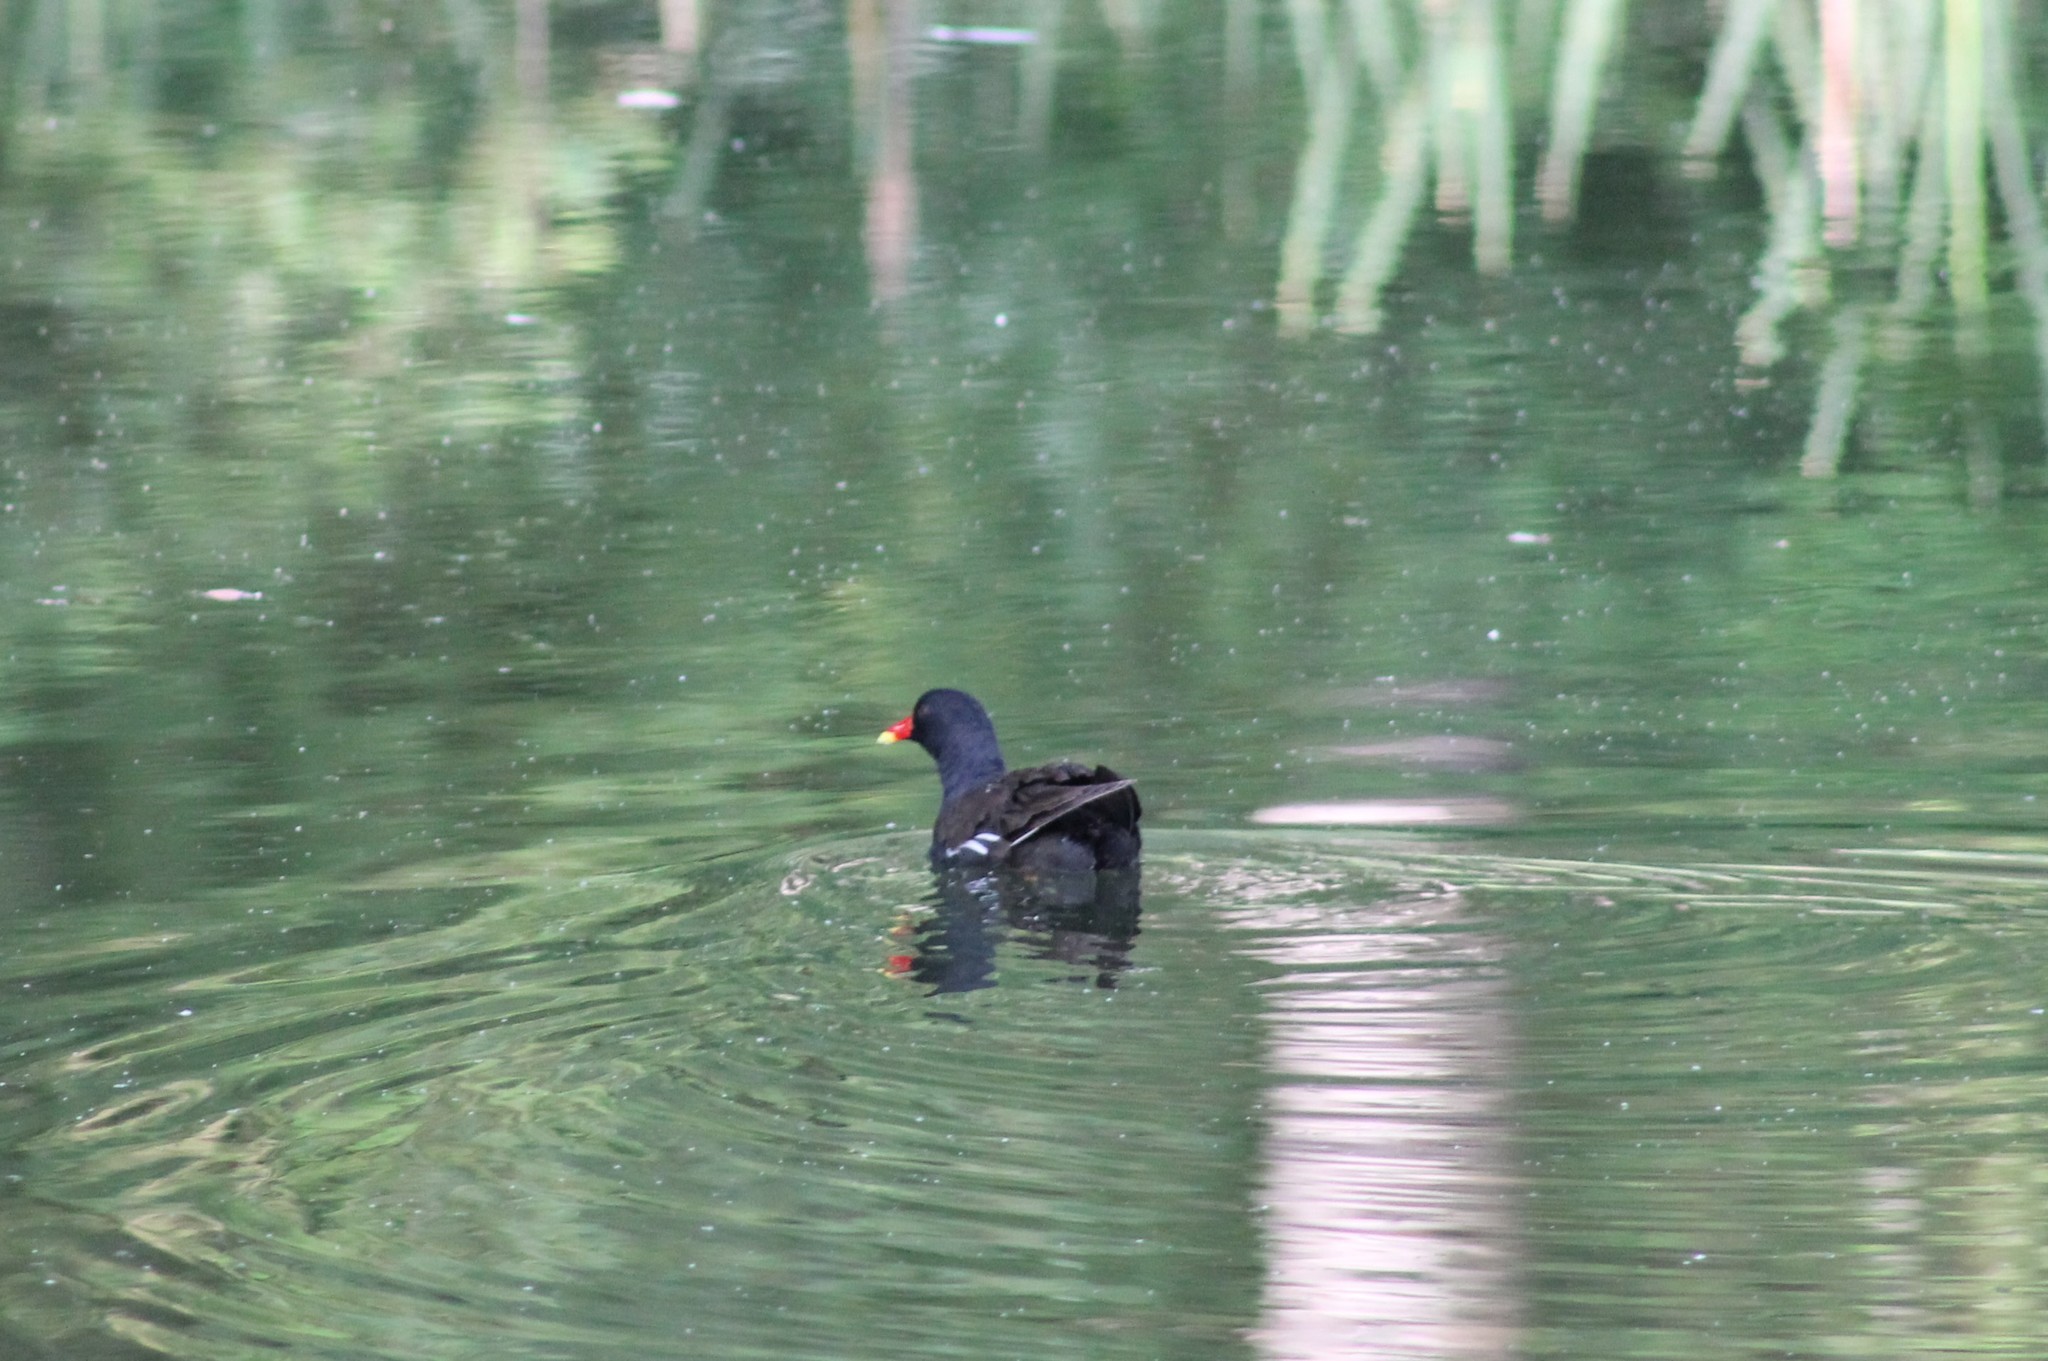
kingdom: Animalia
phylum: Chordata
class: Aves
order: Gruiformes
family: Rallidae
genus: Gallinula
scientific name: Gallinula chloropus
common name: Common moorhen
